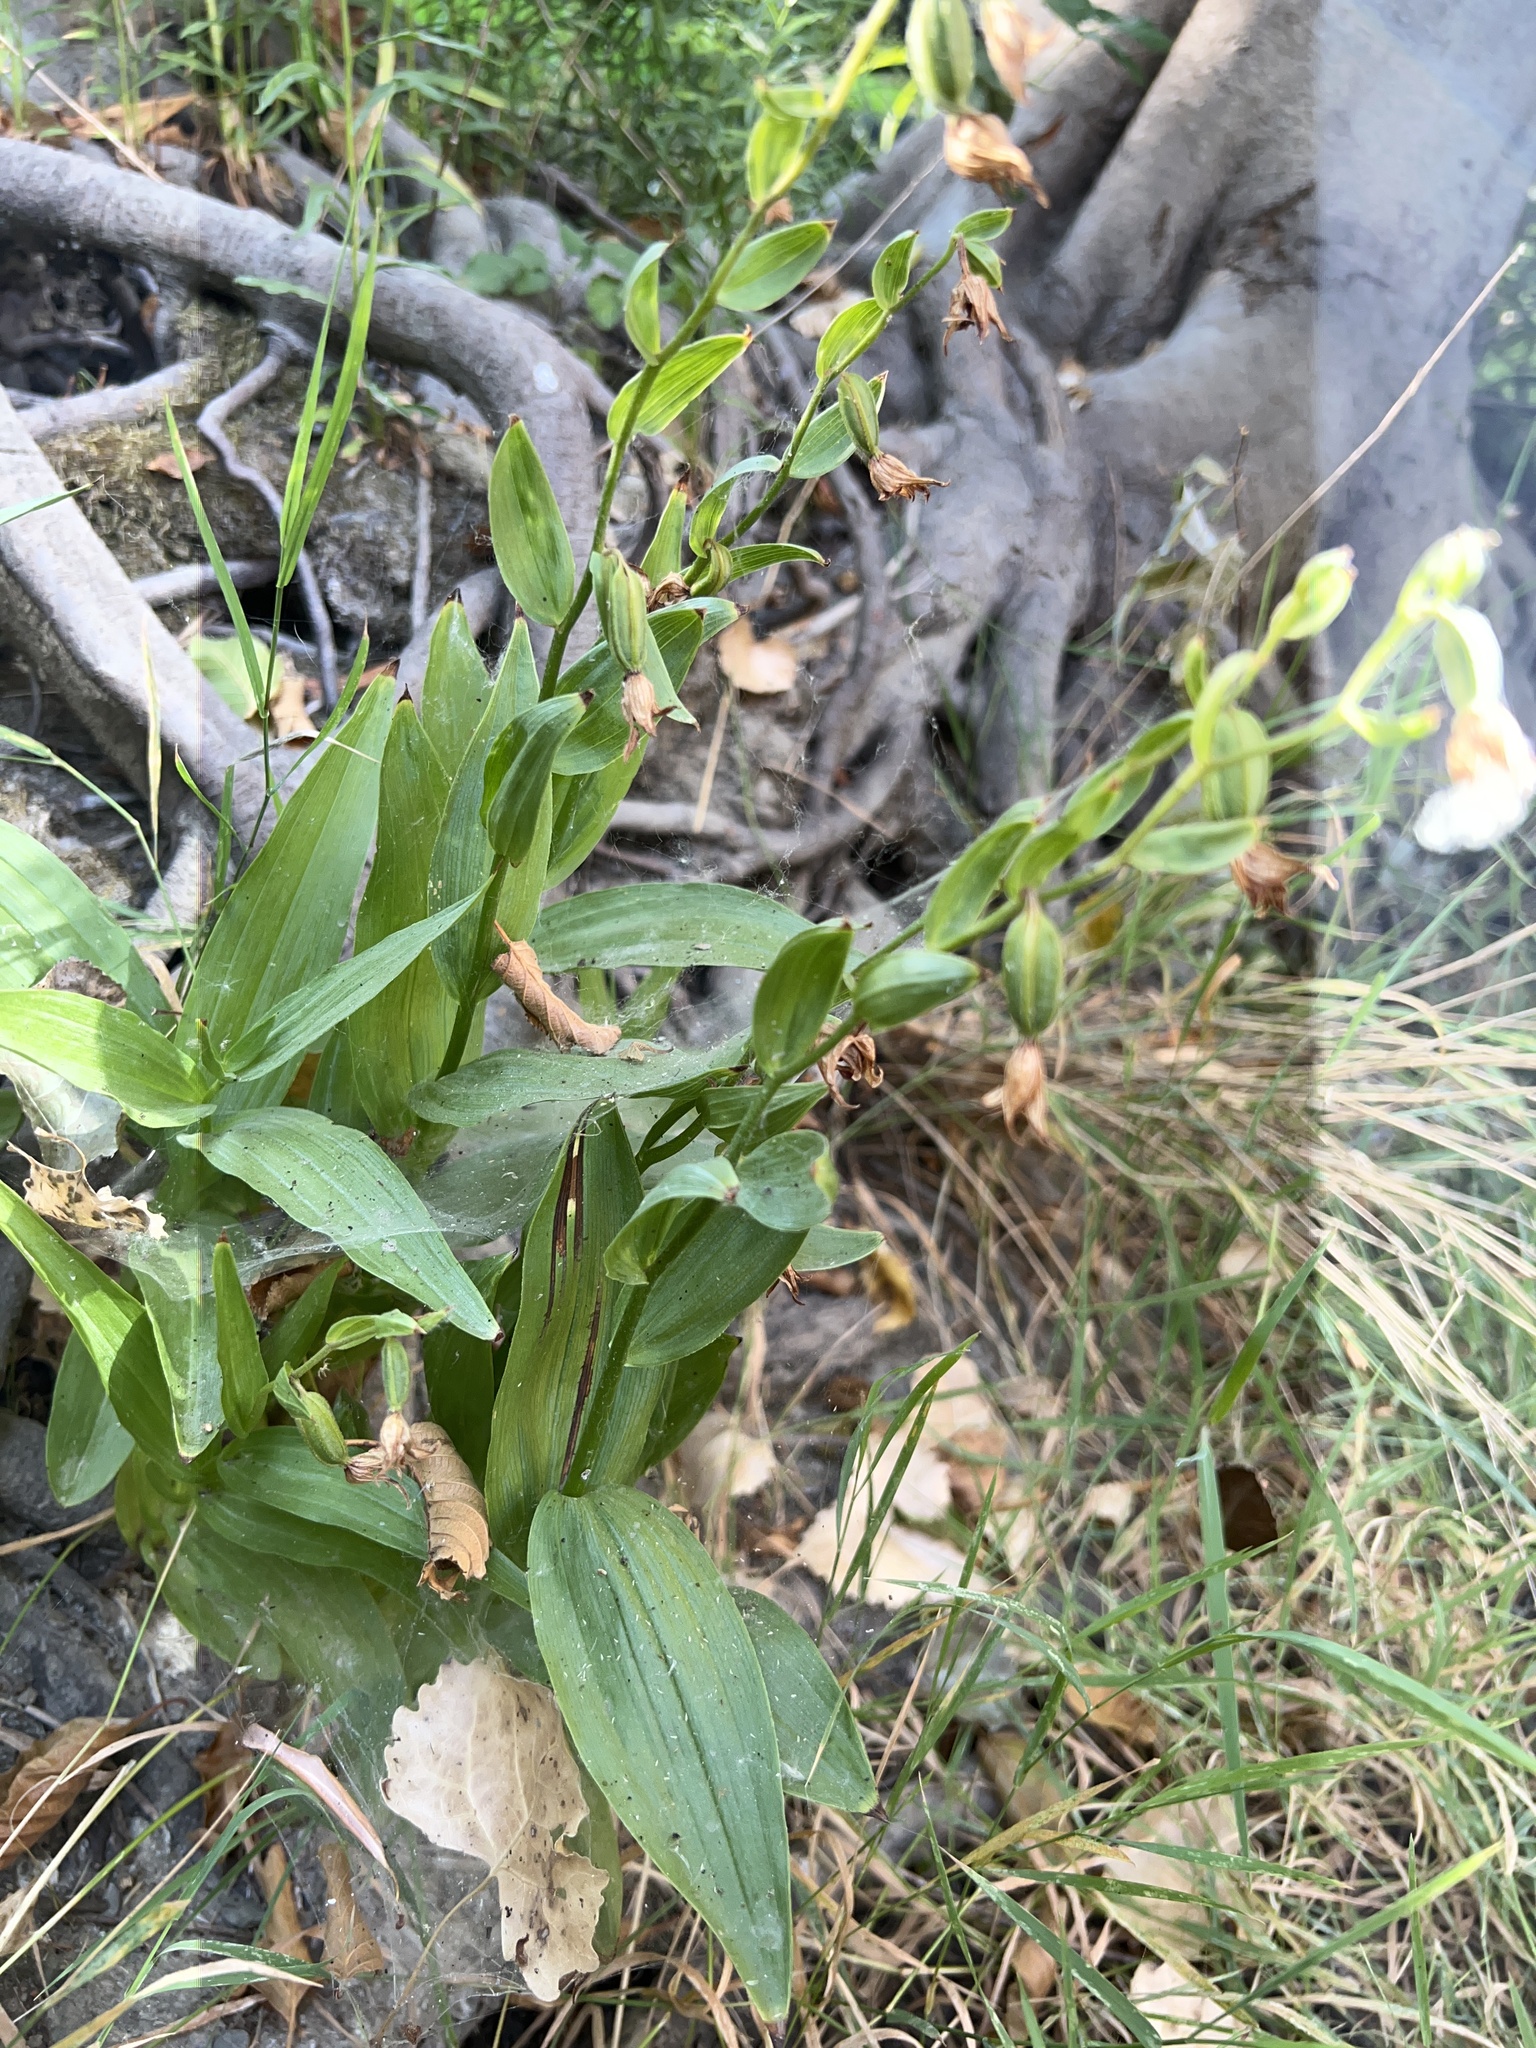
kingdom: Plantae
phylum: Tracheophyta
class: Liliopsida
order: Asparagales
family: Orchidaceae
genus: Epipactis
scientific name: Epipactis gigantea
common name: Chatterbox
